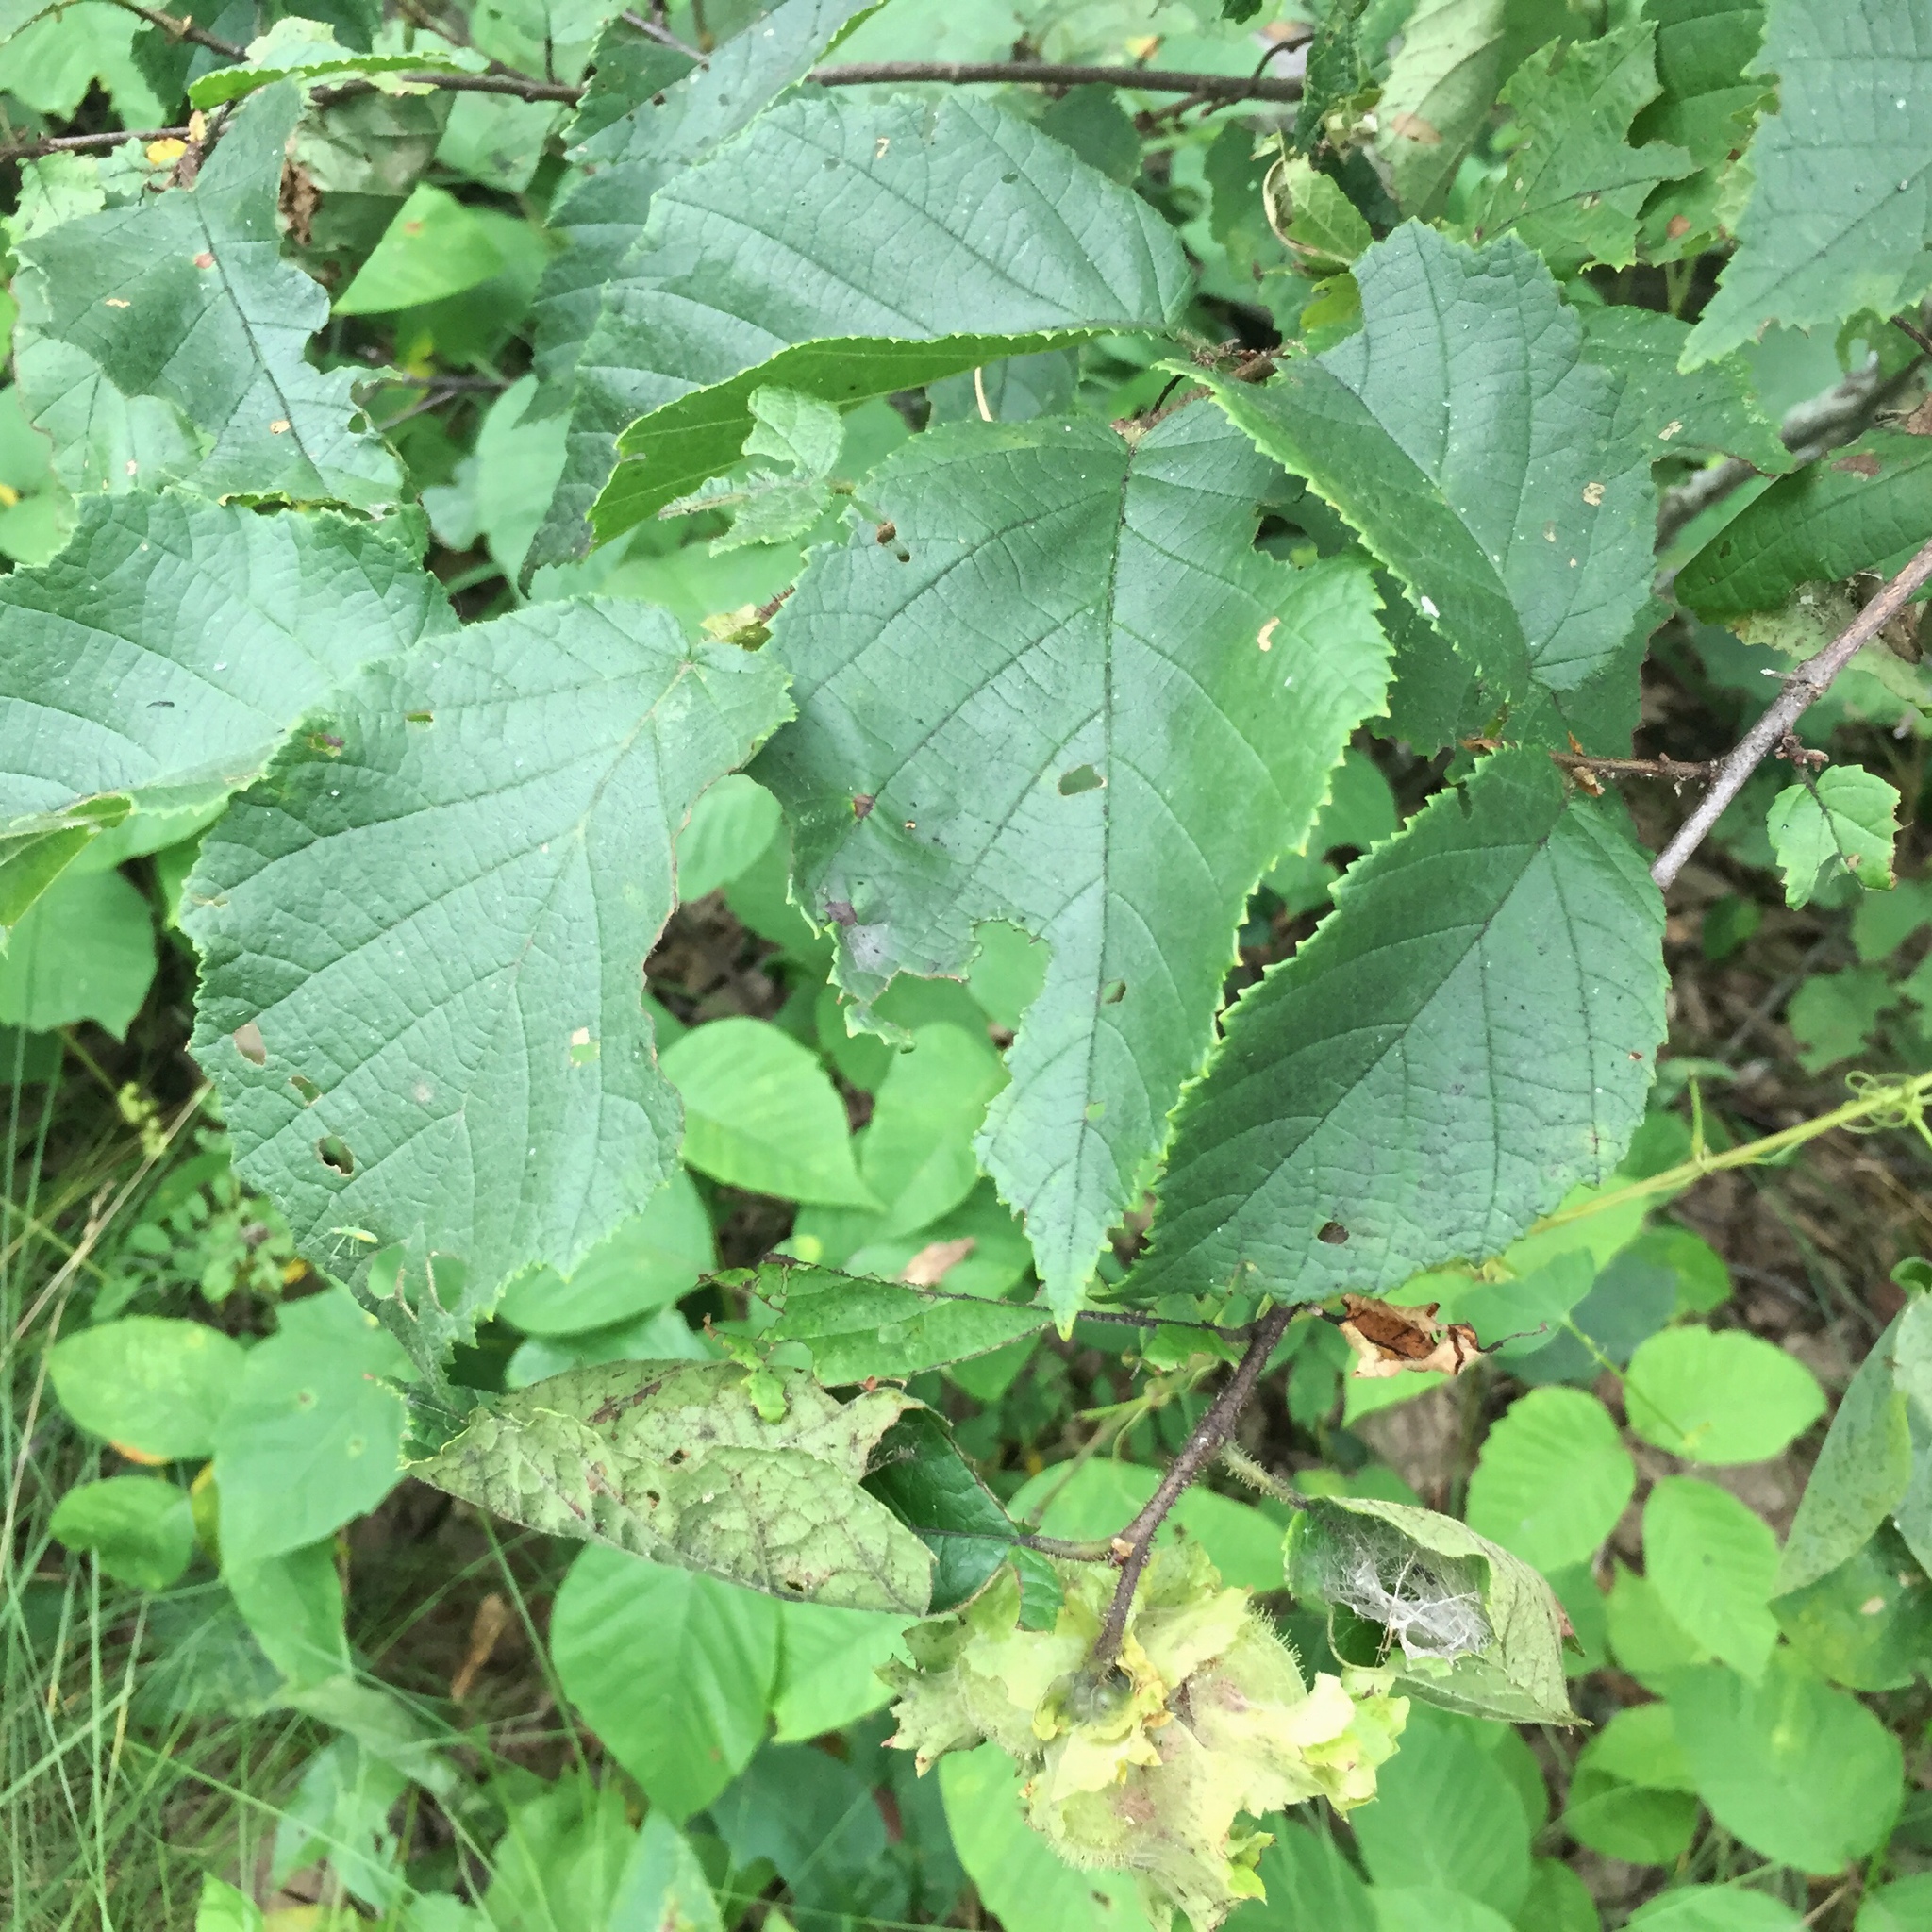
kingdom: Plantae
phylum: Tracheophyta
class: Magnoliopsida
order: Fagales
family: Betulaceae
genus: Corylus
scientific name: Corylus americana
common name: American hazel
